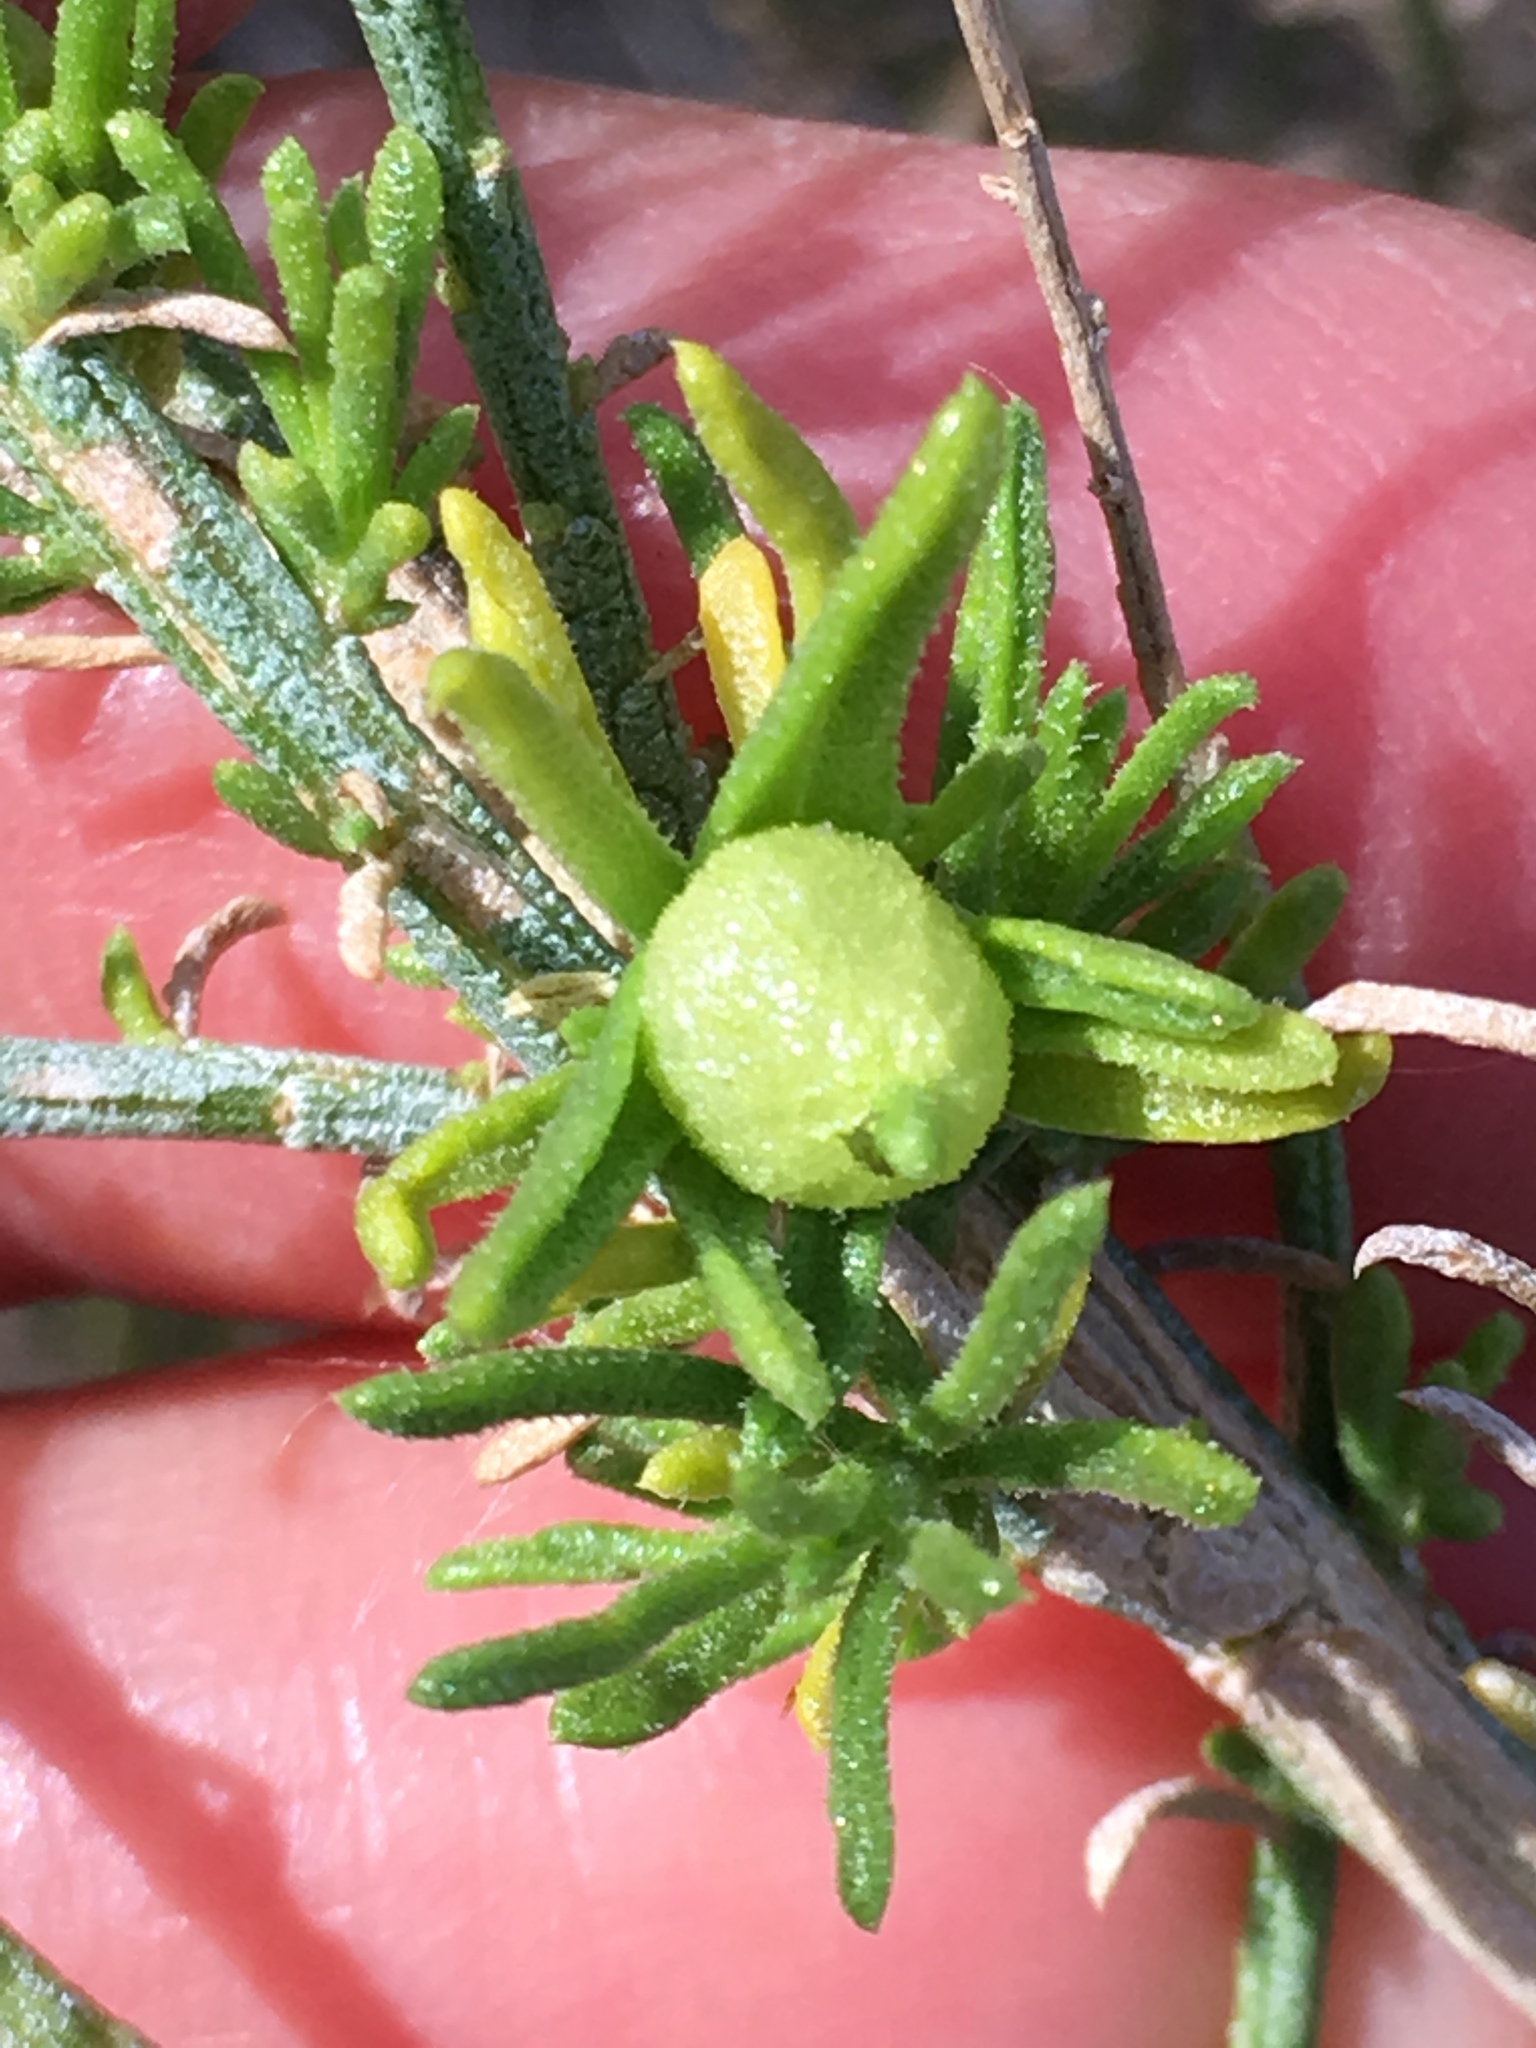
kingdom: Plantae
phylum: Tracheophyta
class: Magnoliopsida
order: Asterales
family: Asteraceae
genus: Ericameria
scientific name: Ericameria paniculata
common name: Punctate rabbitbrush
